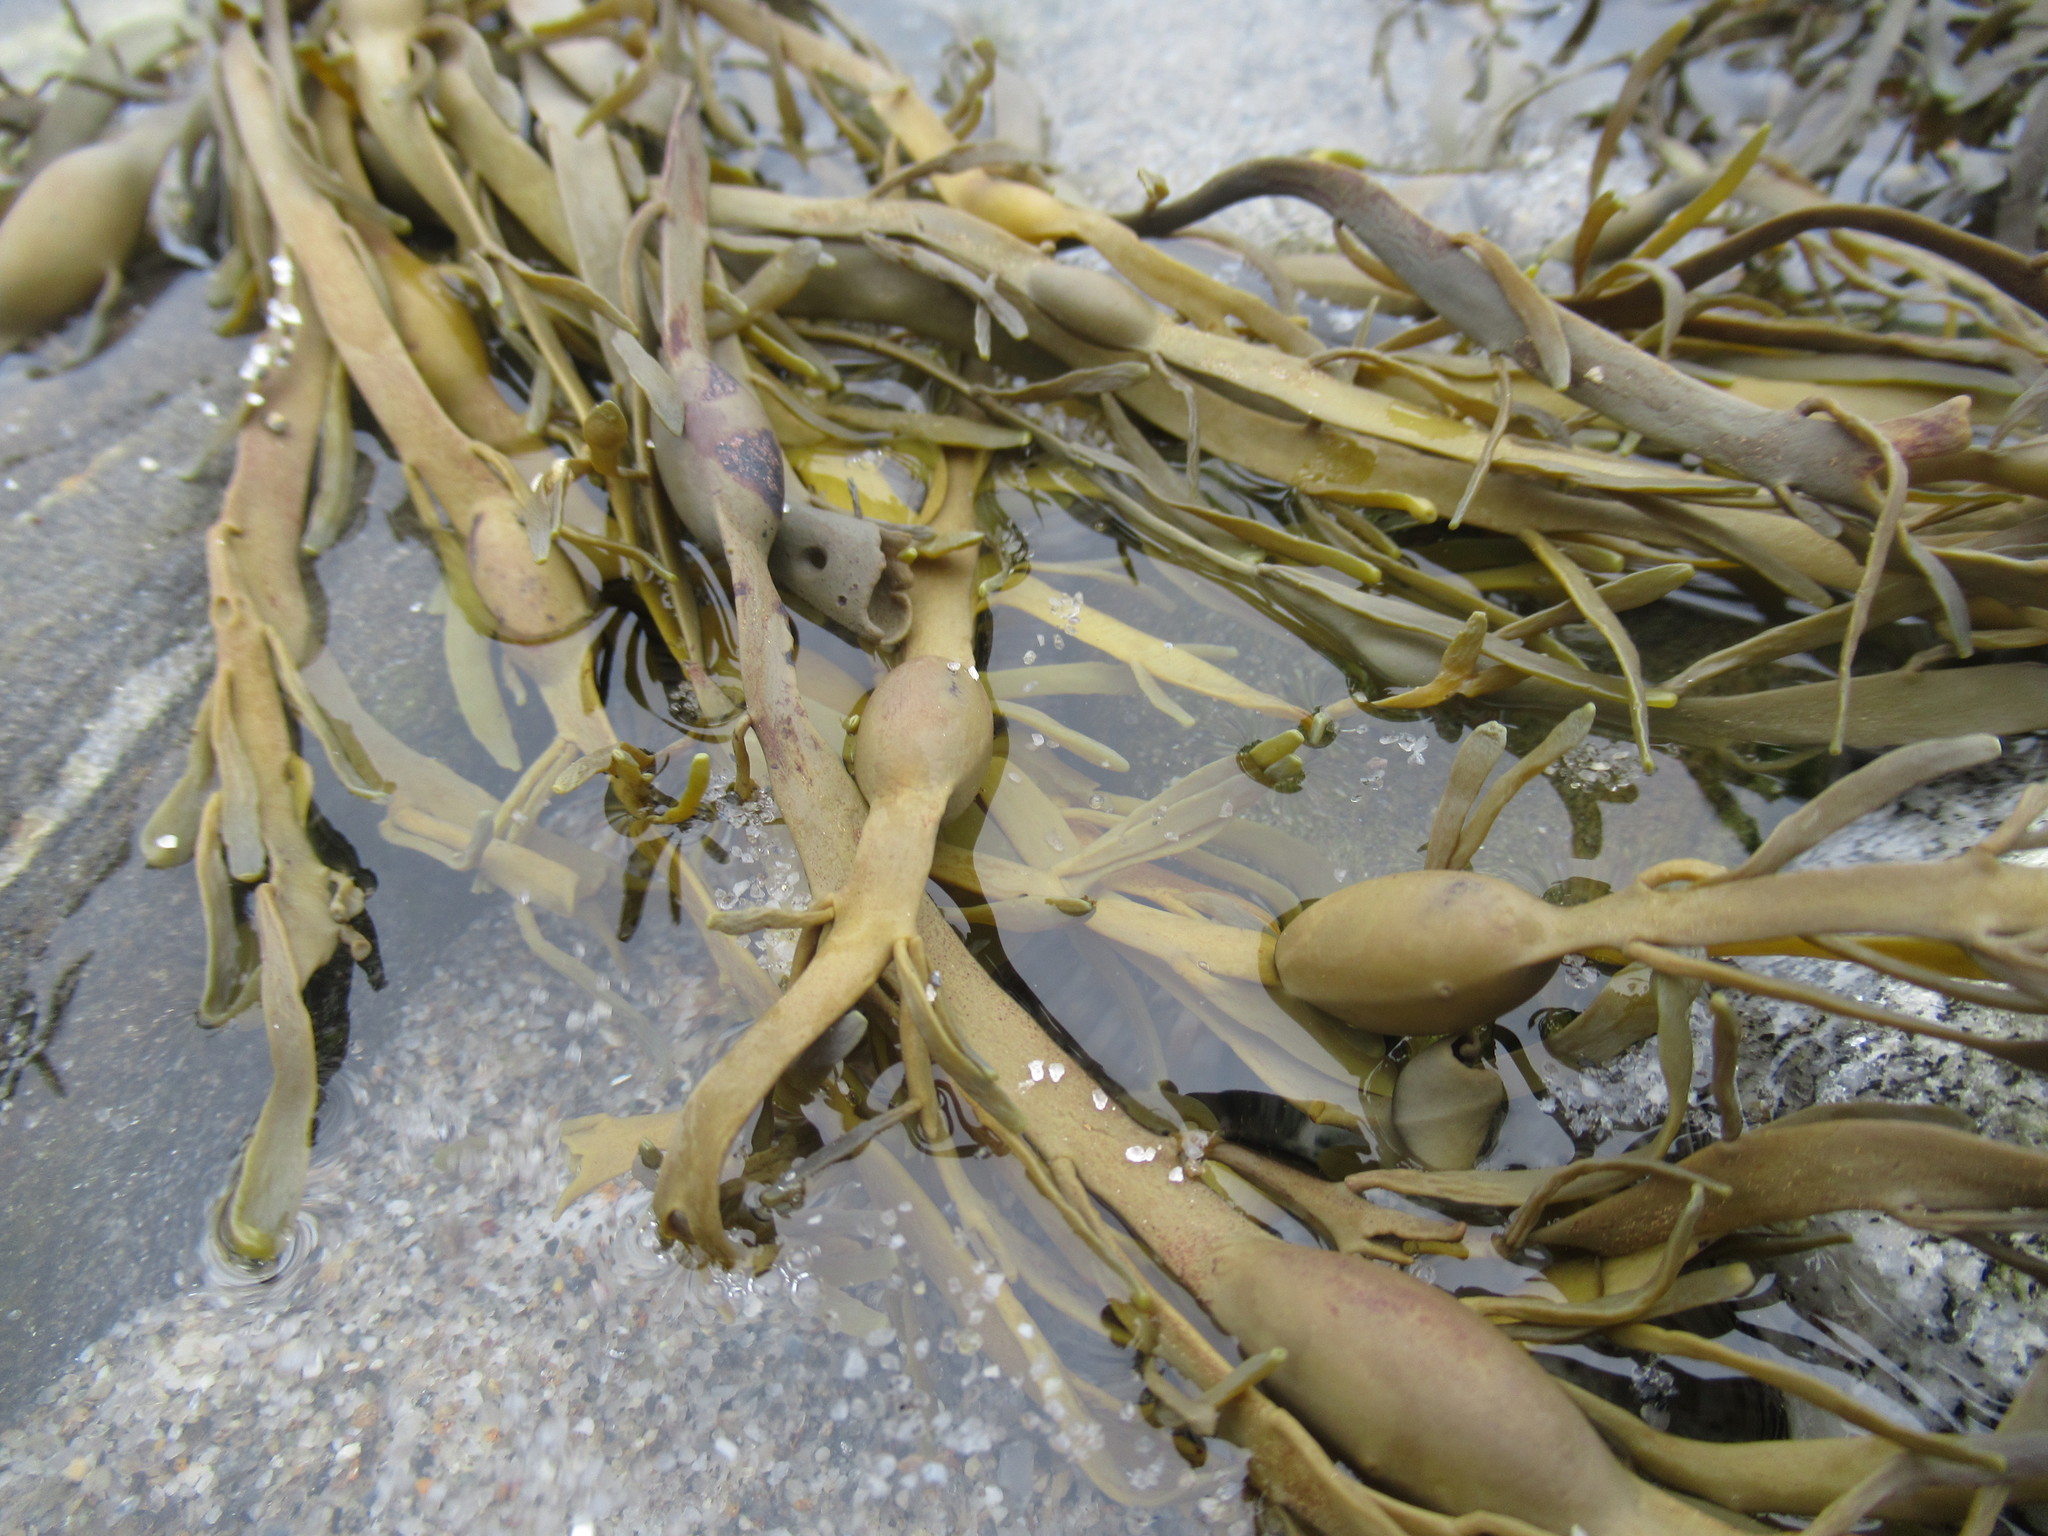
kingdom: Chromista
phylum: Ochrophyta
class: Phaeophyceae
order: Fucales
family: Fucaceae
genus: Ascophyllum
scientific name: Ascophyllum nodosum
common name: Knotted wrack
